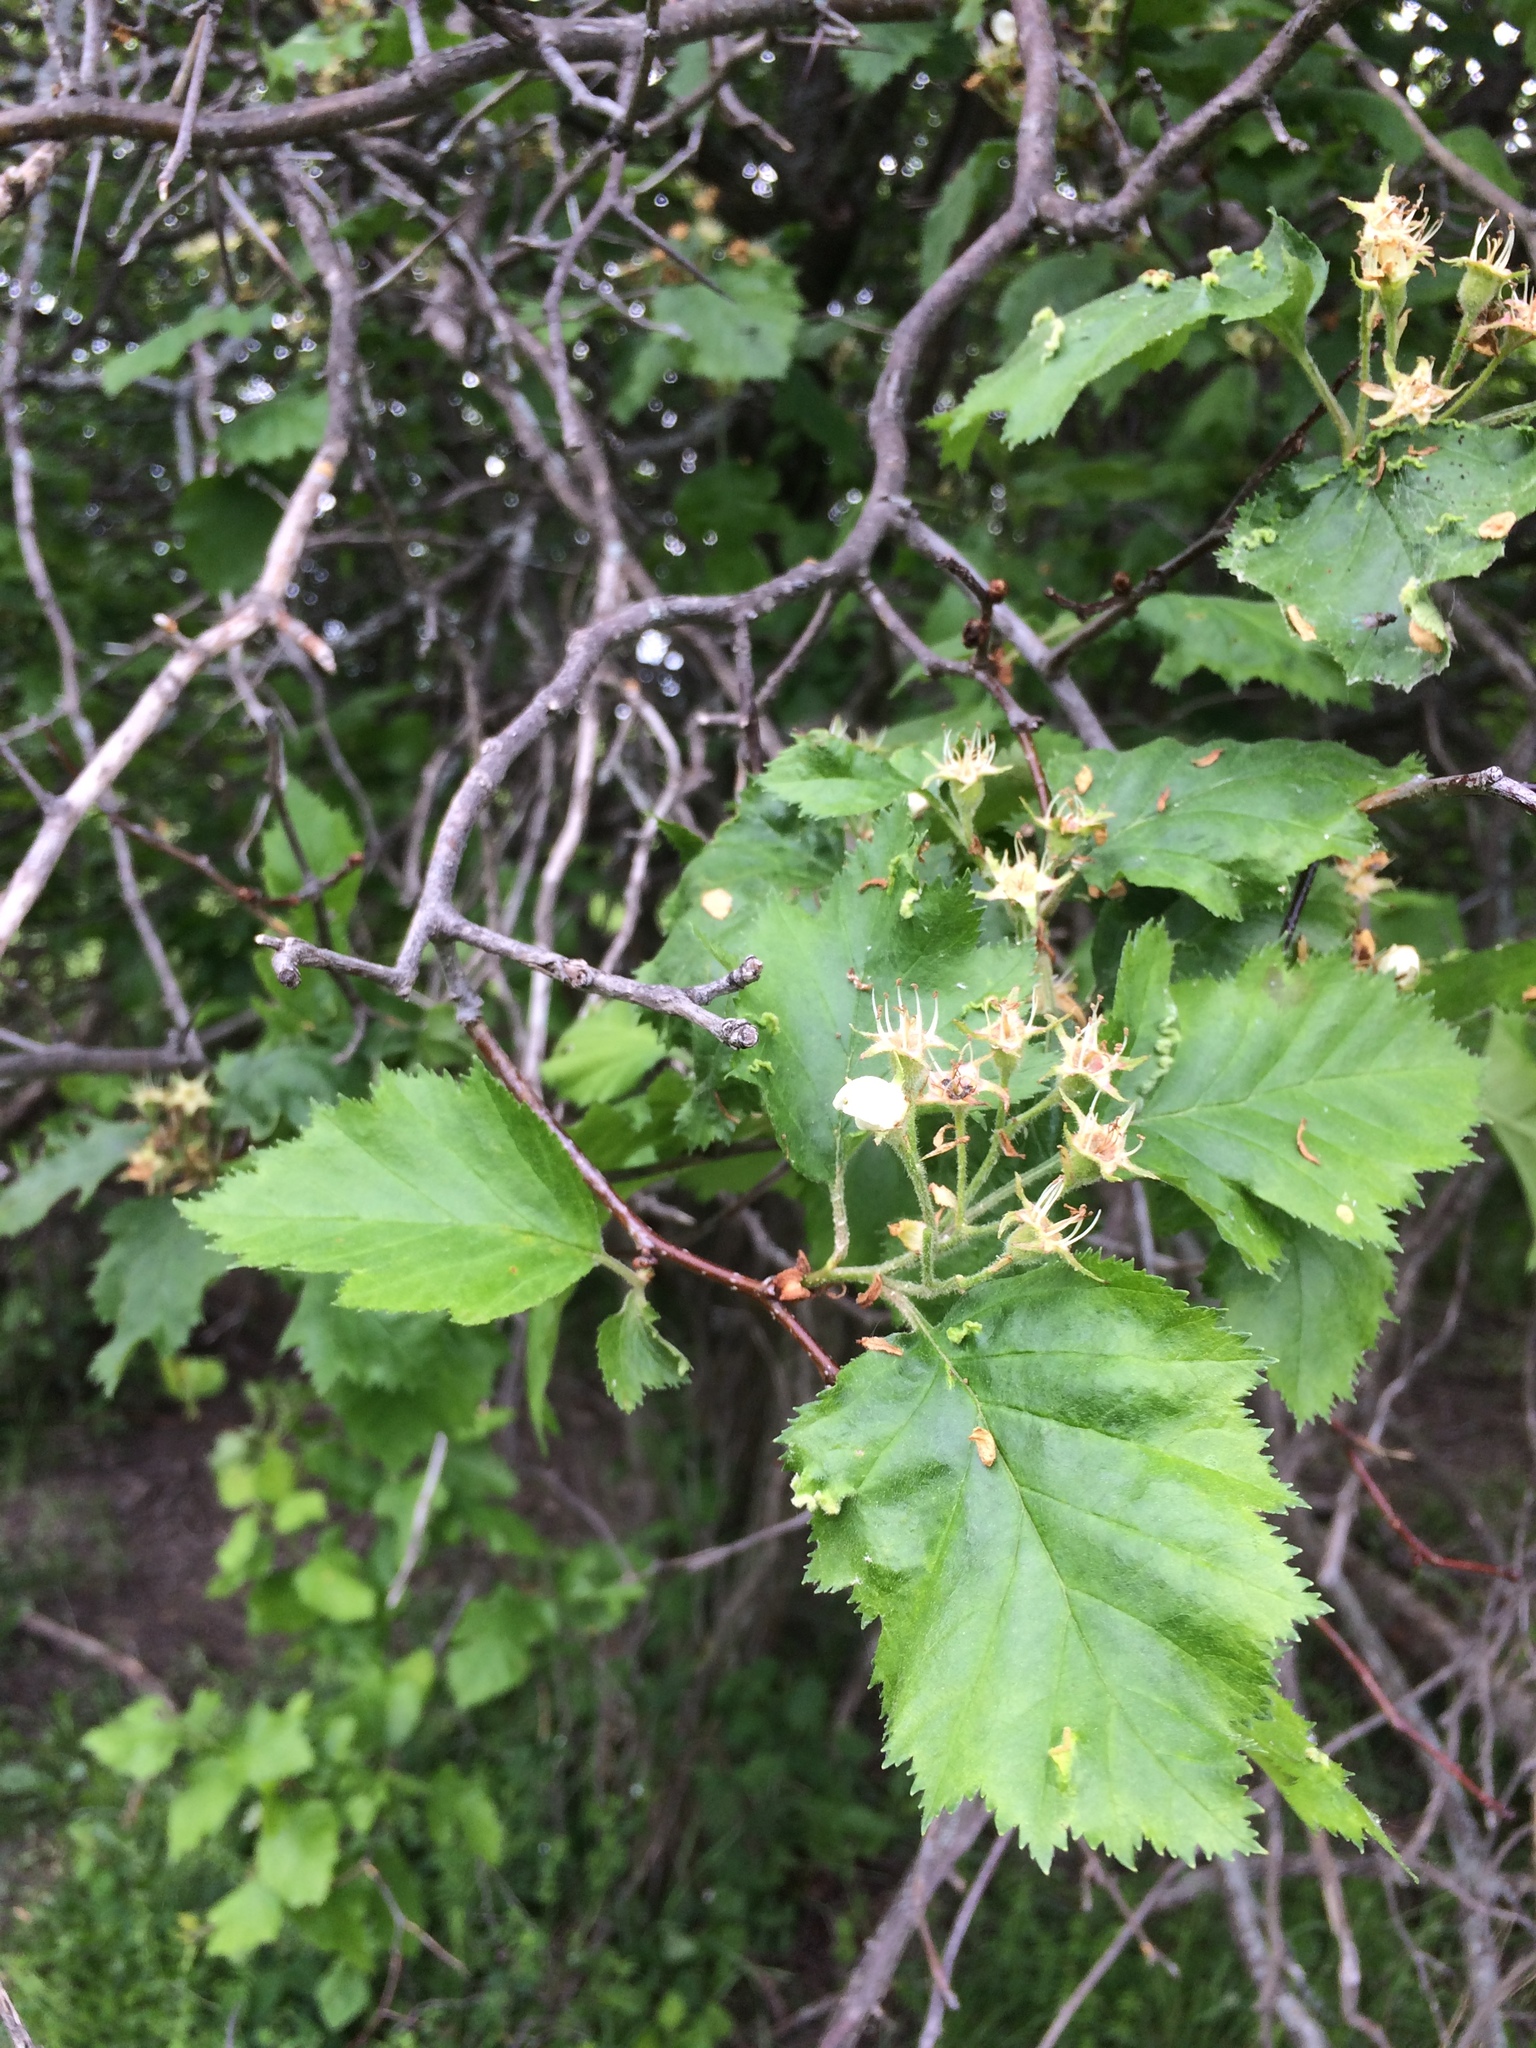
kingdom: Plantae
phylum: Tracheophyta
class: Magnoliopsida
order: Rosales
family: Rosaceae
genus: Crataegus
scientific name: Crataegus submollis
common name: Hairy cockspurthorn
